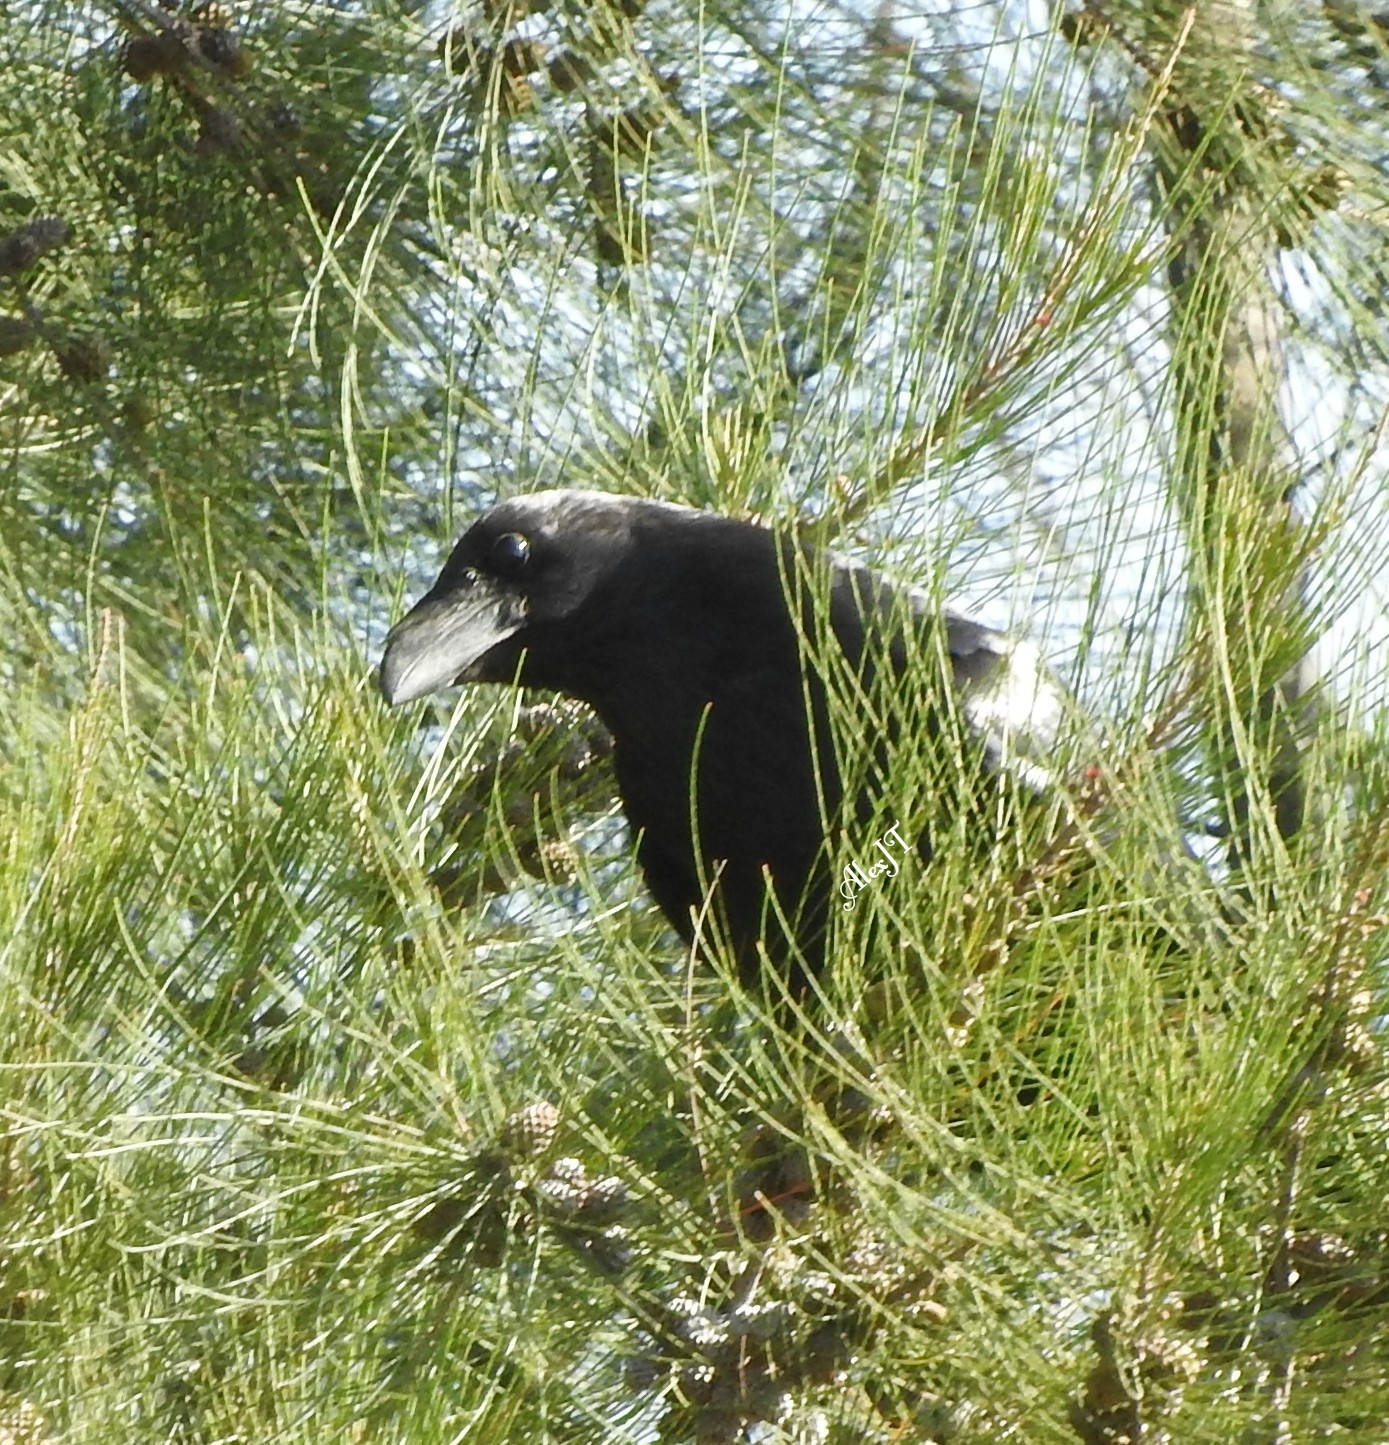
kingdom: Animalia
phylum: Chordata
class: Aves
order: Passeriformes
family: Corvidae
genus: Corvus
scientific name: Corvus corax
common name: Common raven
